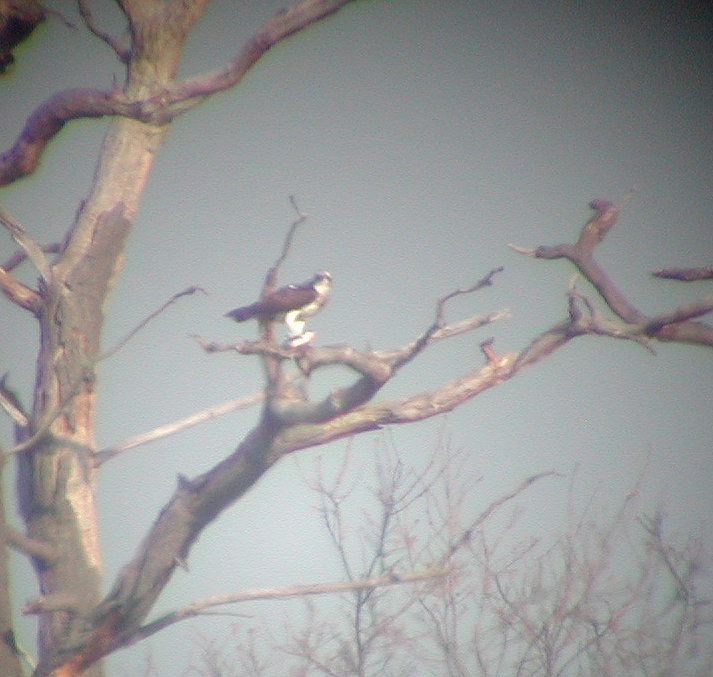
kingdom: Animalia
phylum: Chordata
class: Aves
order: Accipitriformes
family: Pandionidae
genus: Pandion
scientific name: Pandion haliaetus
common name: Osprey
